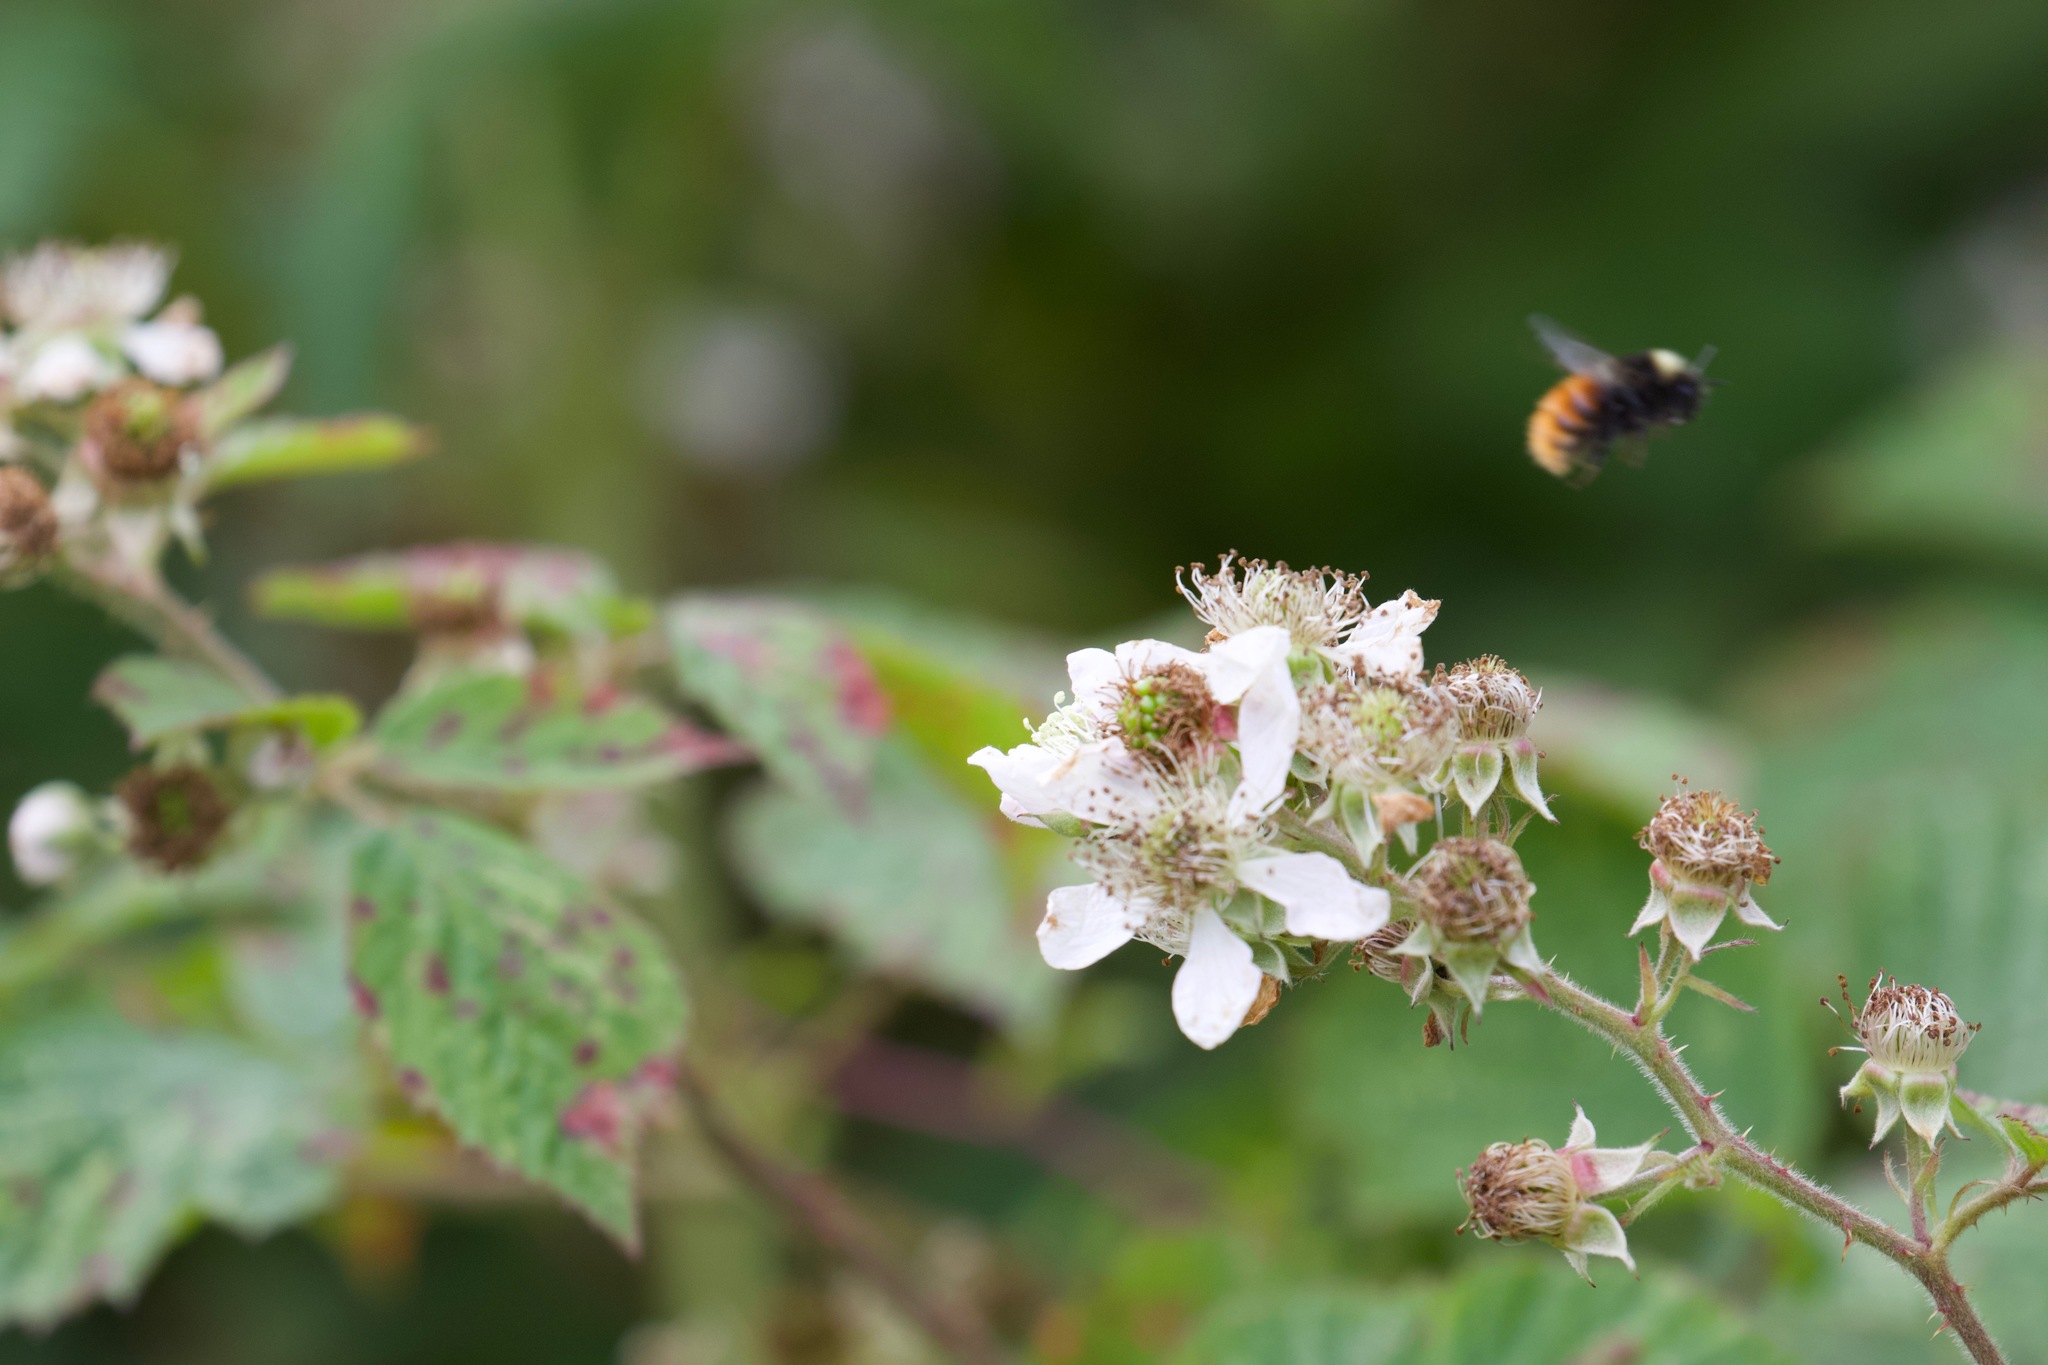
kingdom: Animalia
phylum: Arthropoda
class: Insecta
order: Hymenoptera
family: Apidae
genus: Bombus
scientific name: Bombus monticola
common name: Bilberry humble-bee
